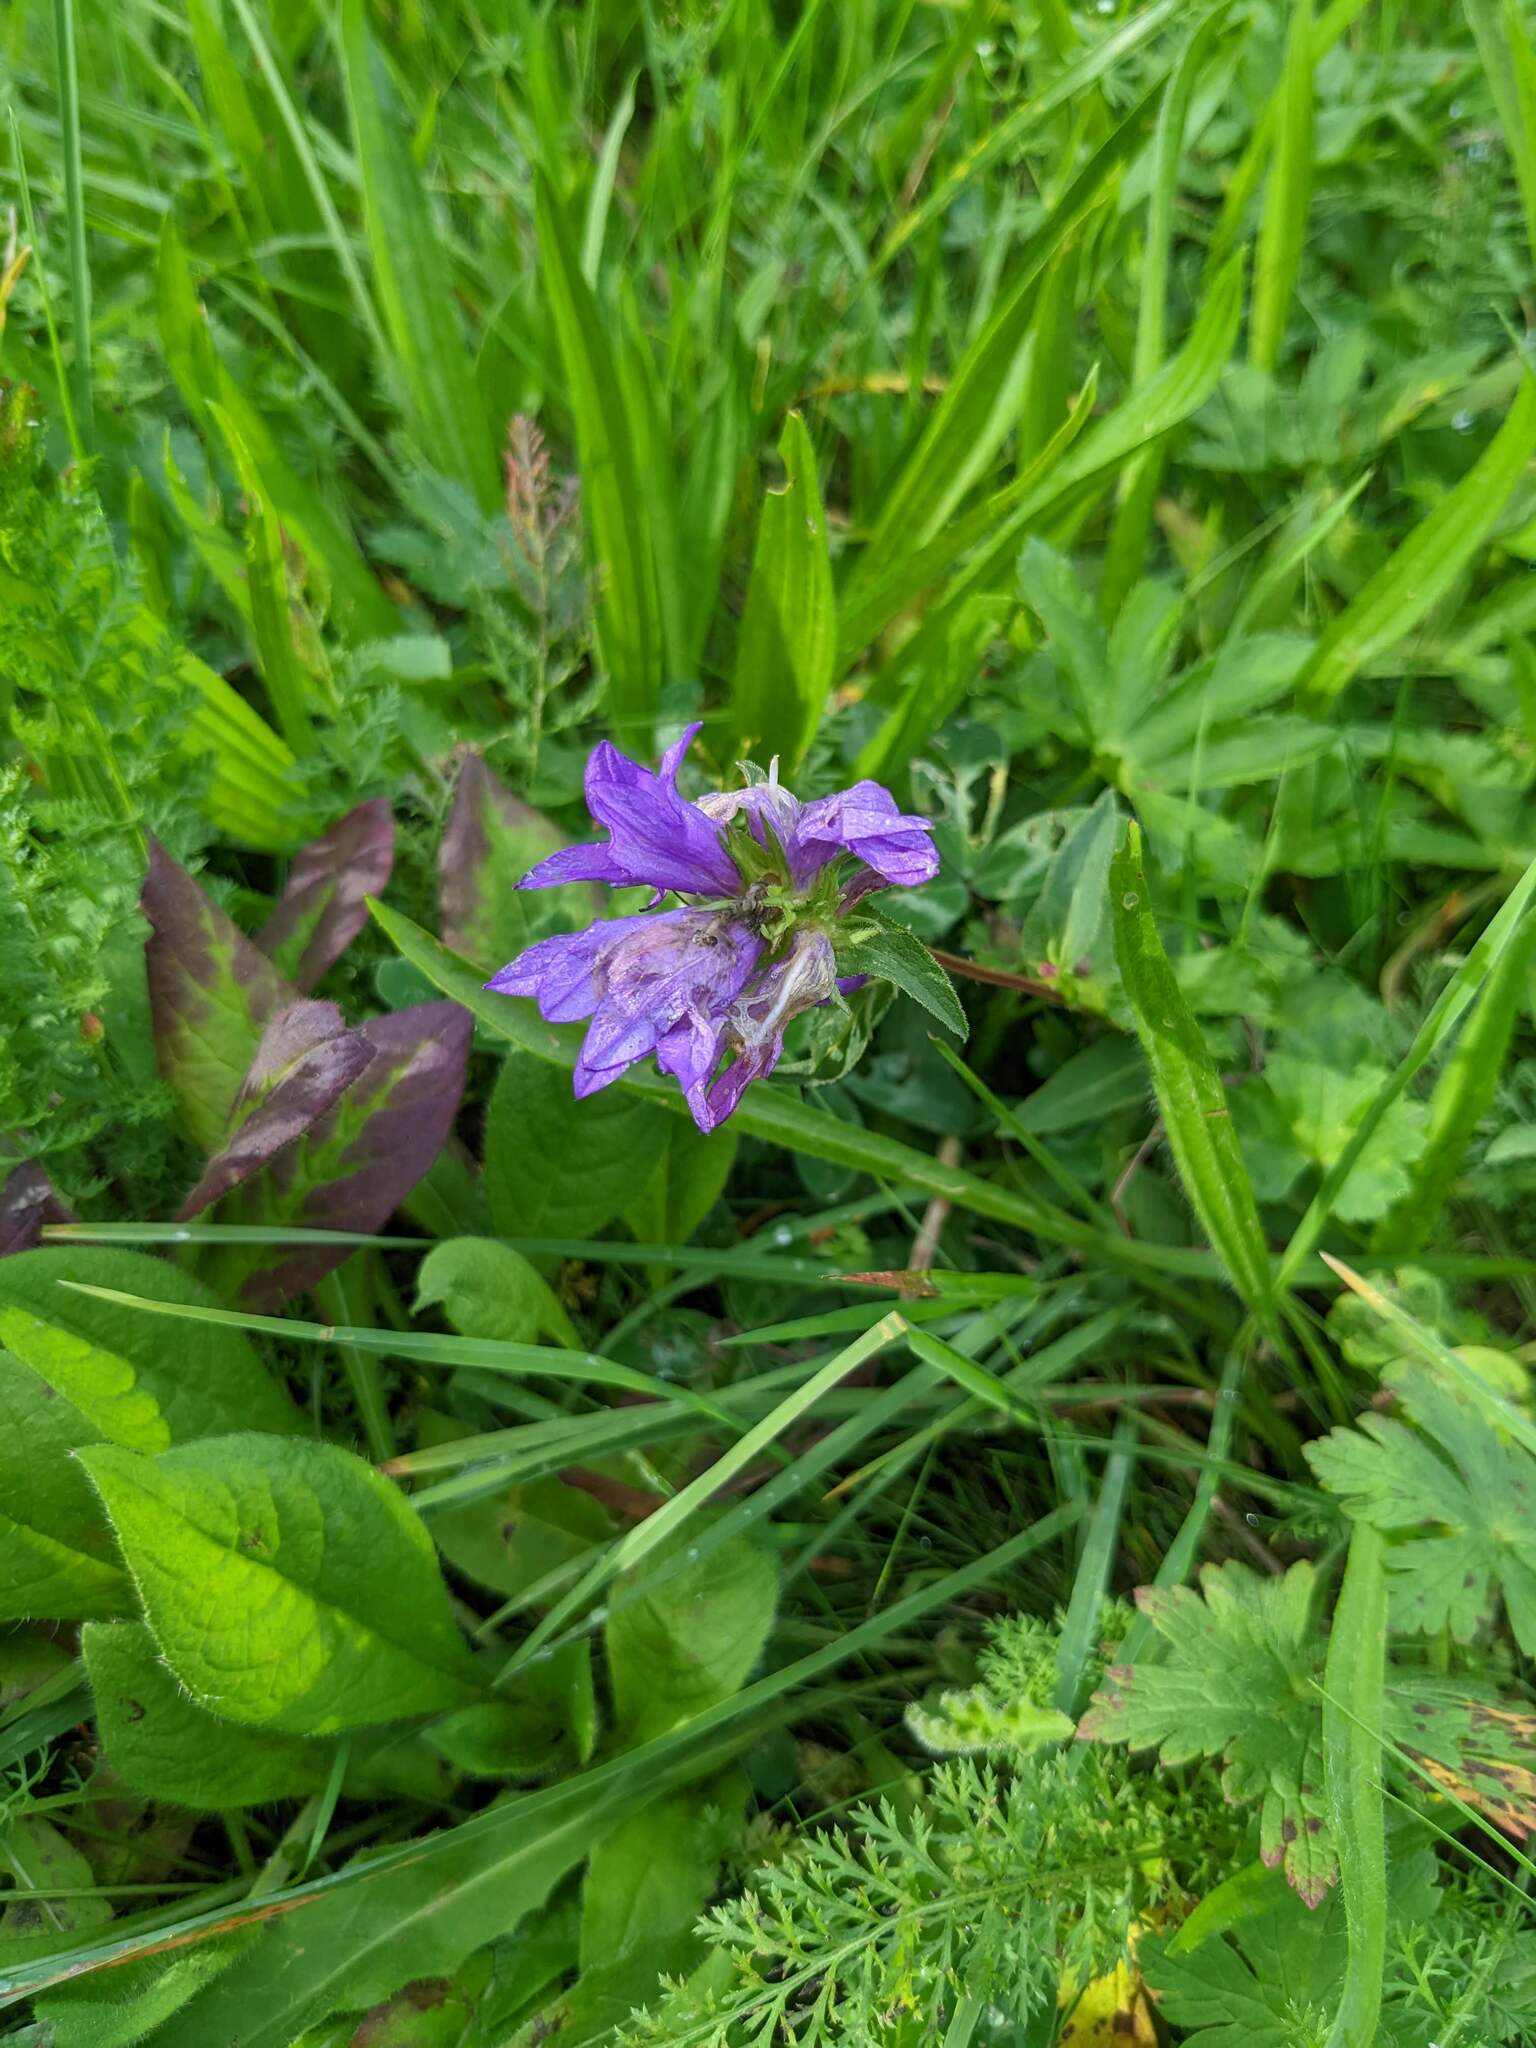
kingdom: Plantae
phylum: Tracheophyta
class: Magnoliopsida
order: Asterales
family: Campanulaceae
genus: Campanula
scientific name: Campanula glomerata
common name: Clustered bellflower
